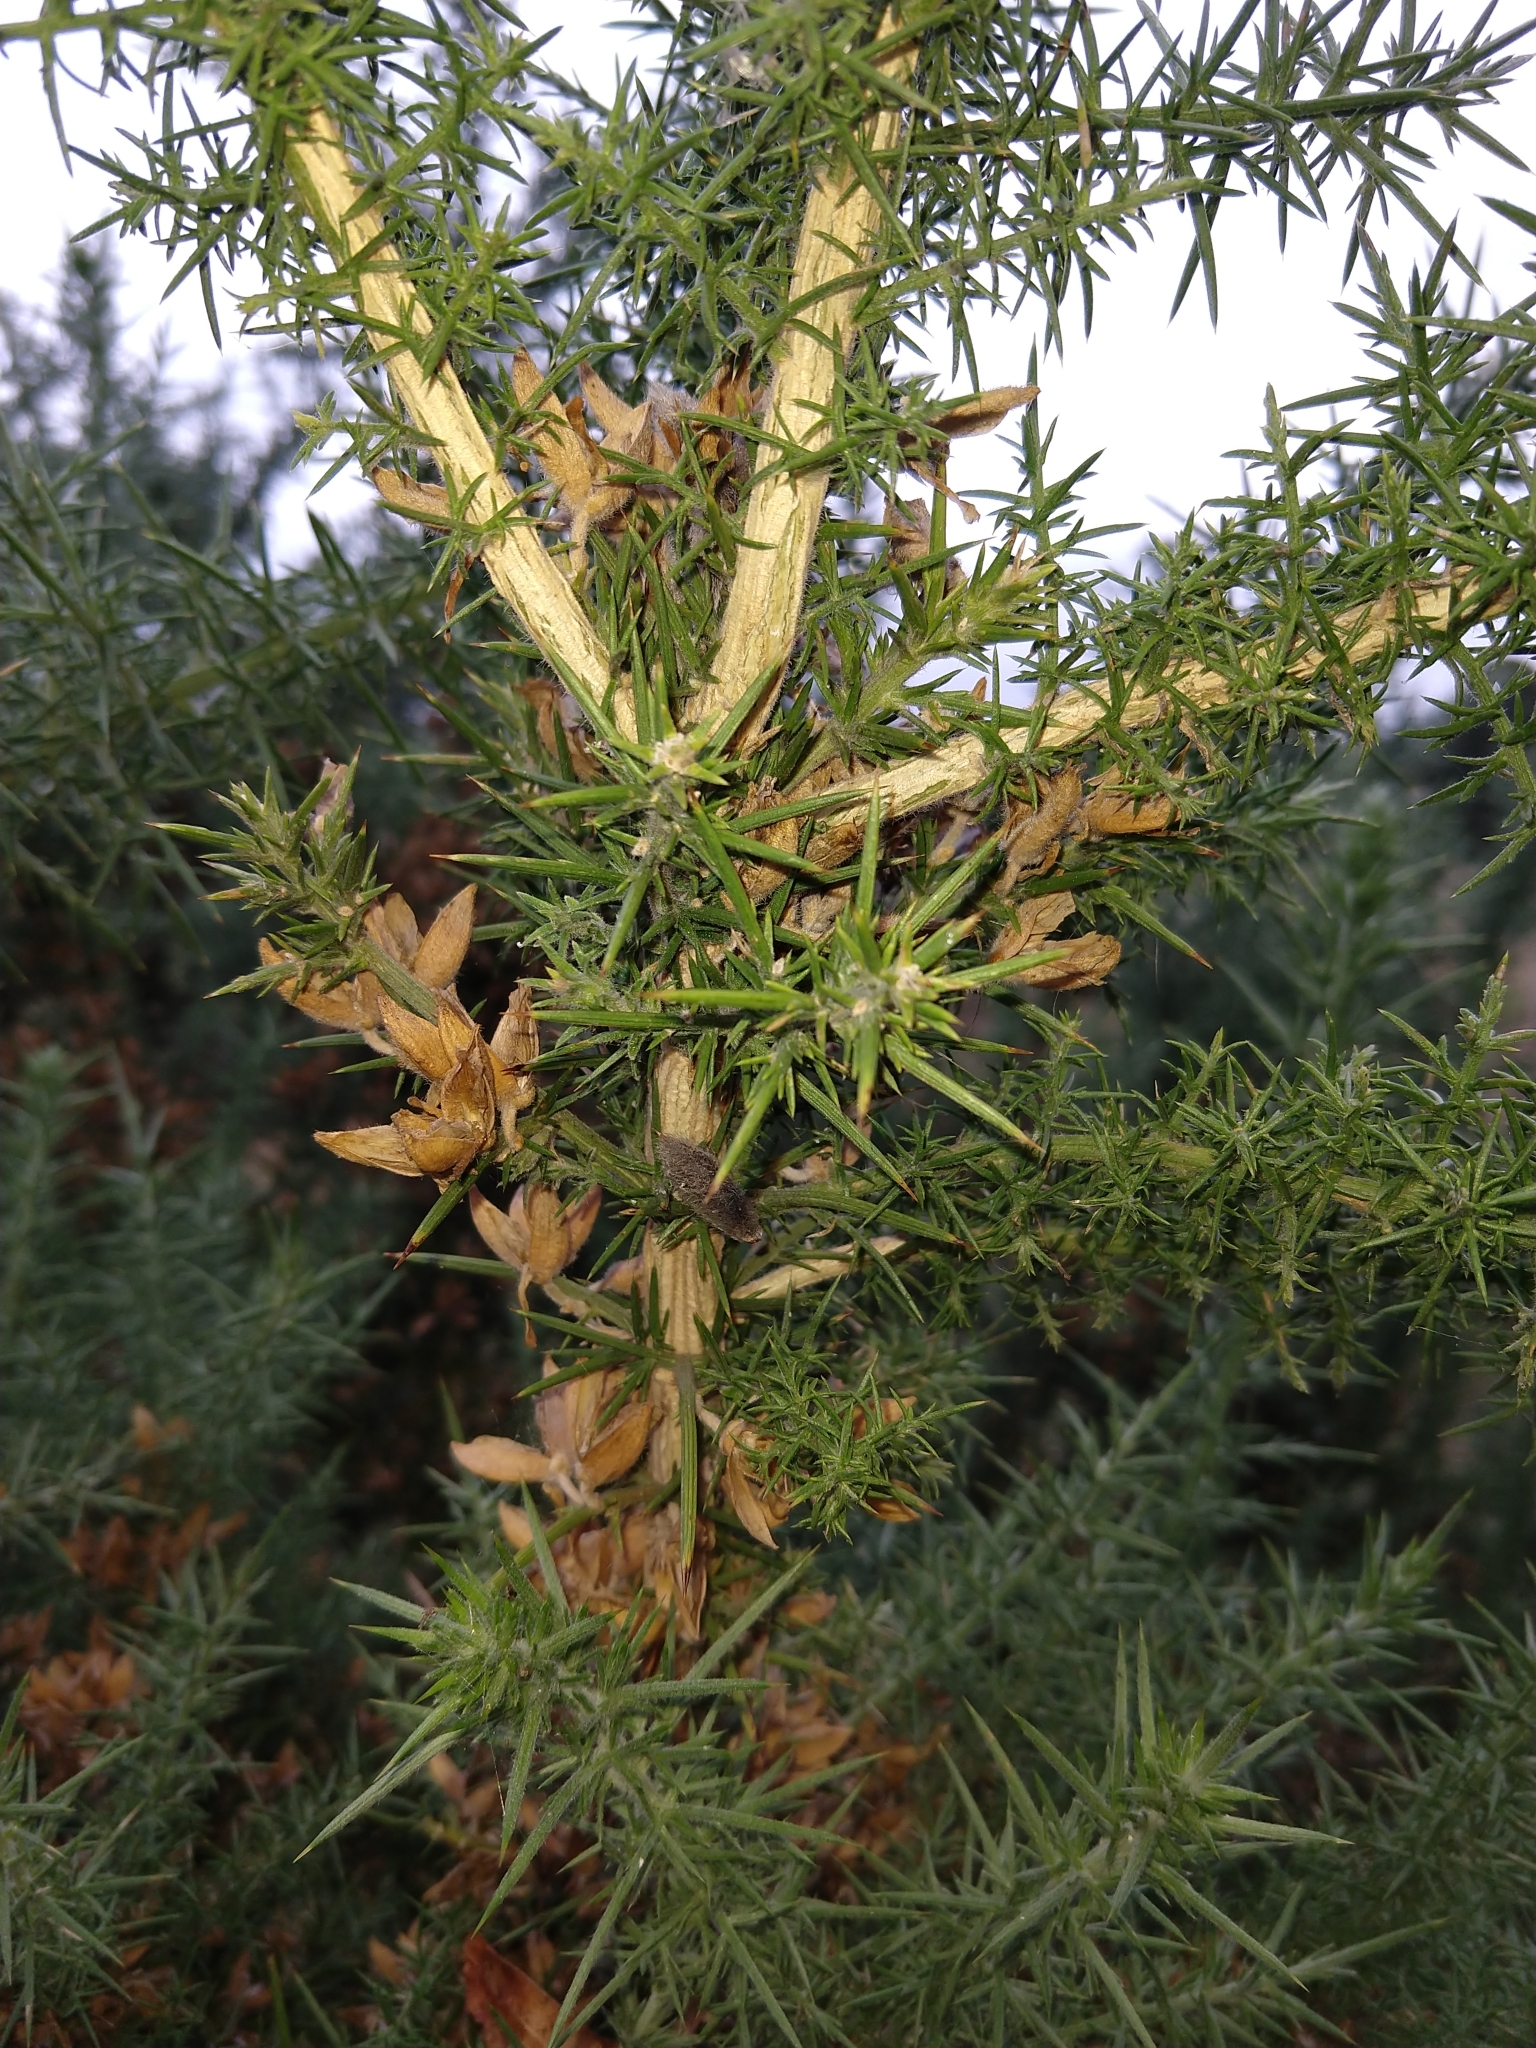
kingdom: Plantae
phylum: Tracheophyta
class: Magnoliopsida
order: Fabales
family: Fabaceae
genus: Ulex
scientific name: Ulex europaeus
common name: Common gorse
